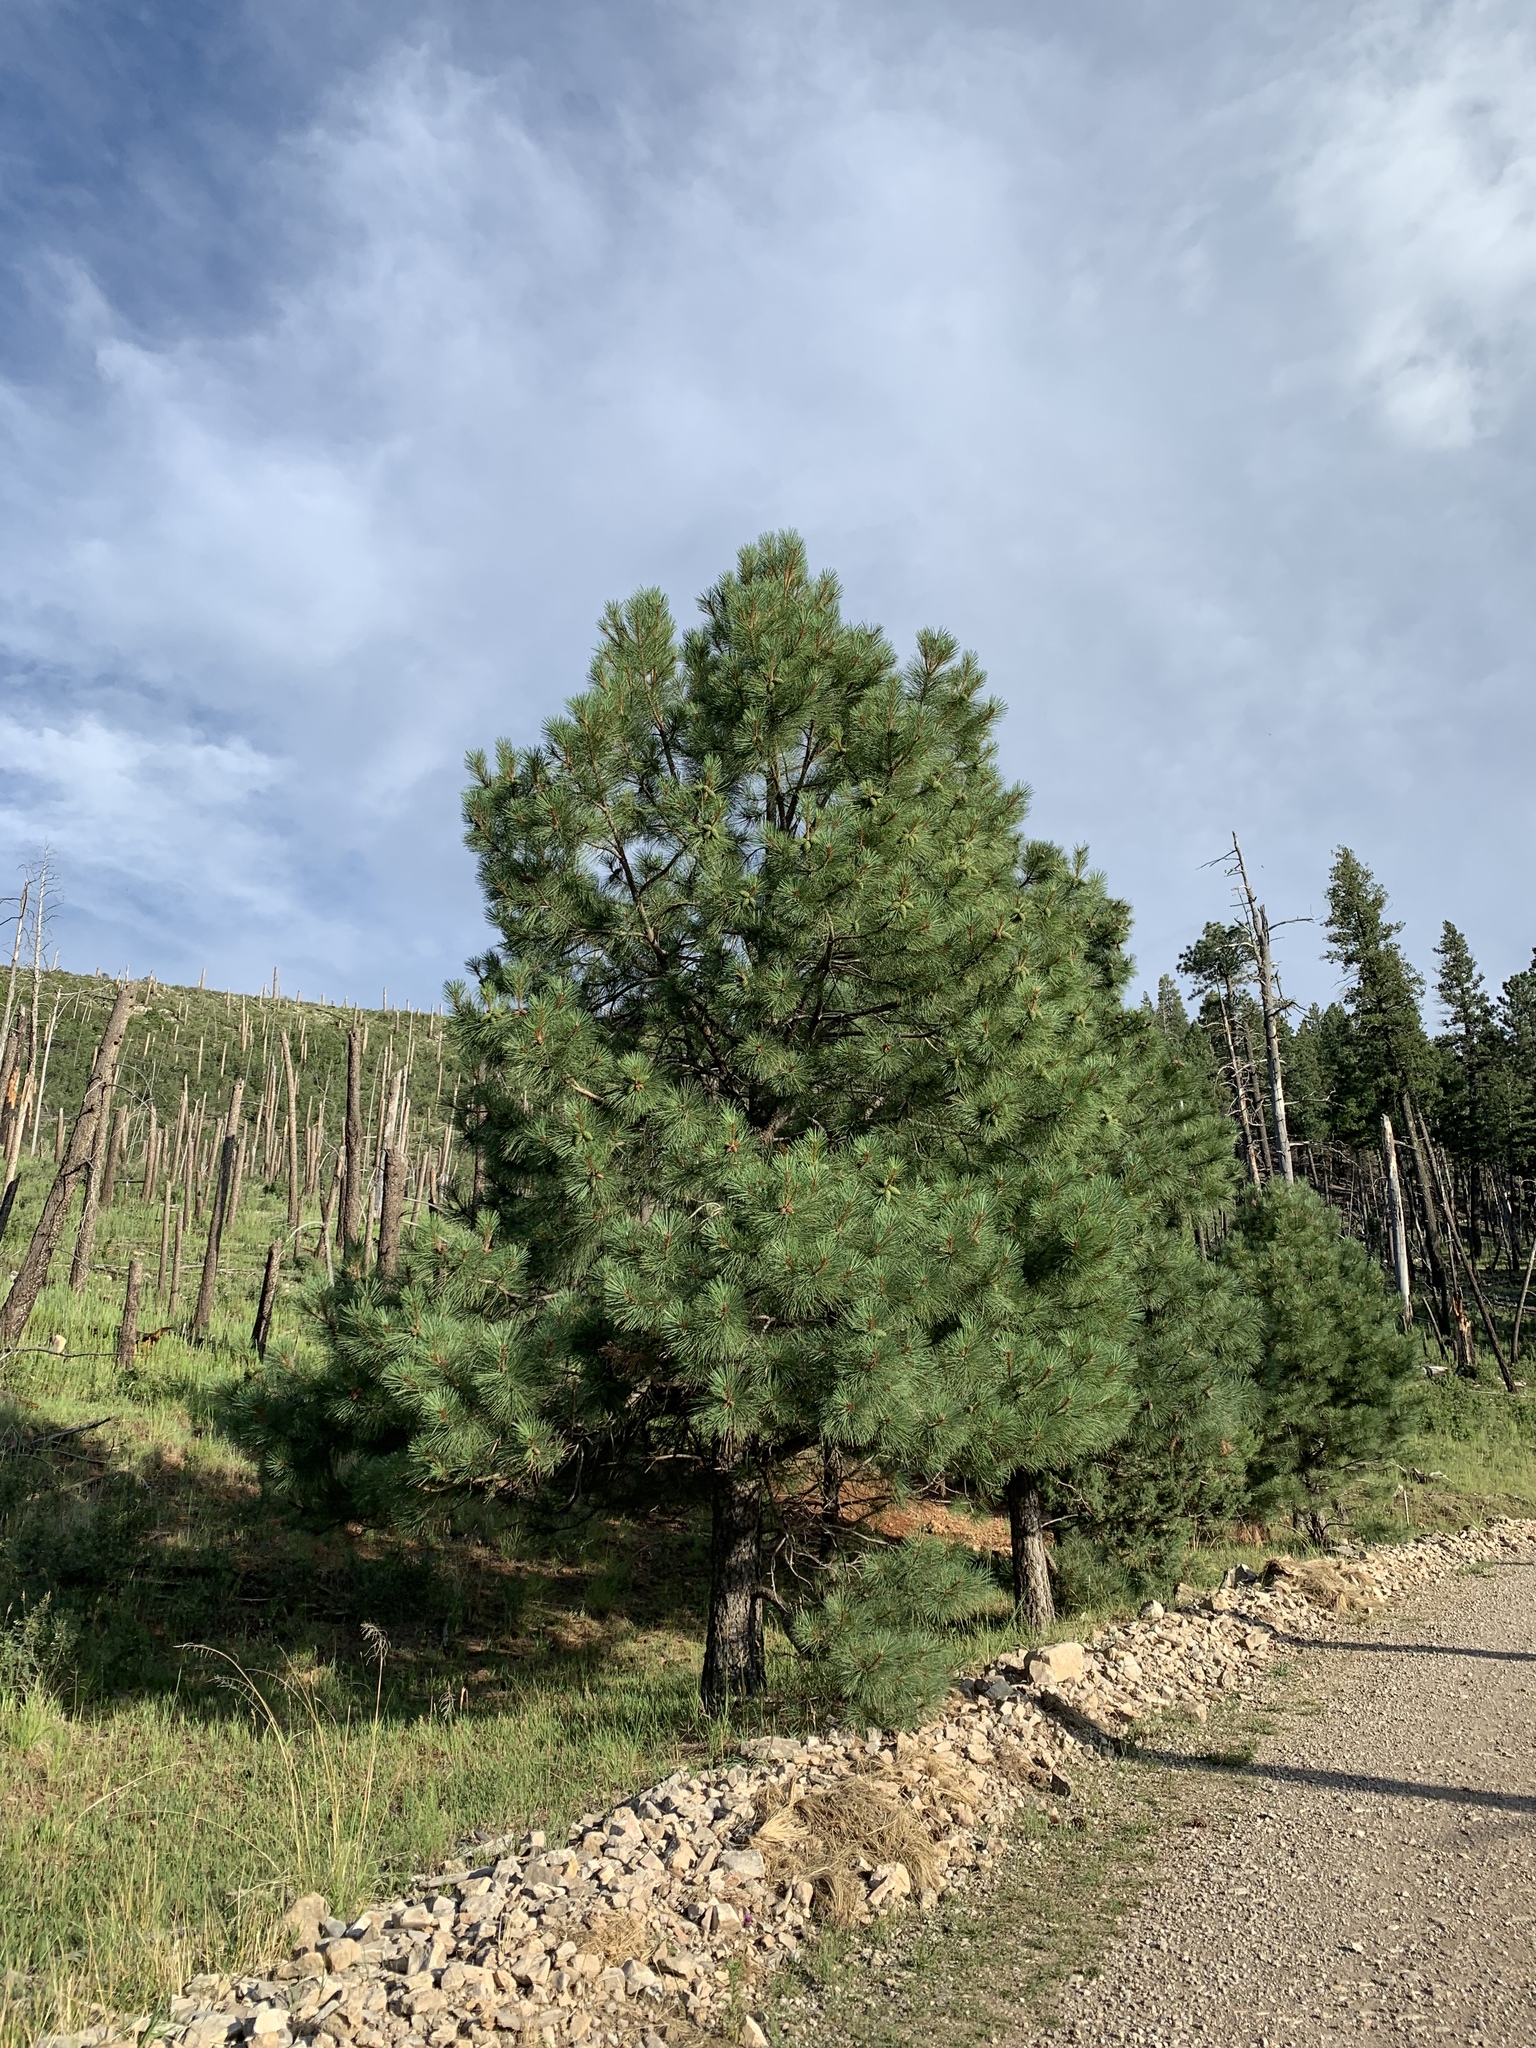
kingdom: Plantae
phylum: Tracheophyta
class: Pinopsida
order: Pinales
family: Pinaceae
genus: Pinus
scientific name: Pinus ponderosa
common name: Western yellow-pine
